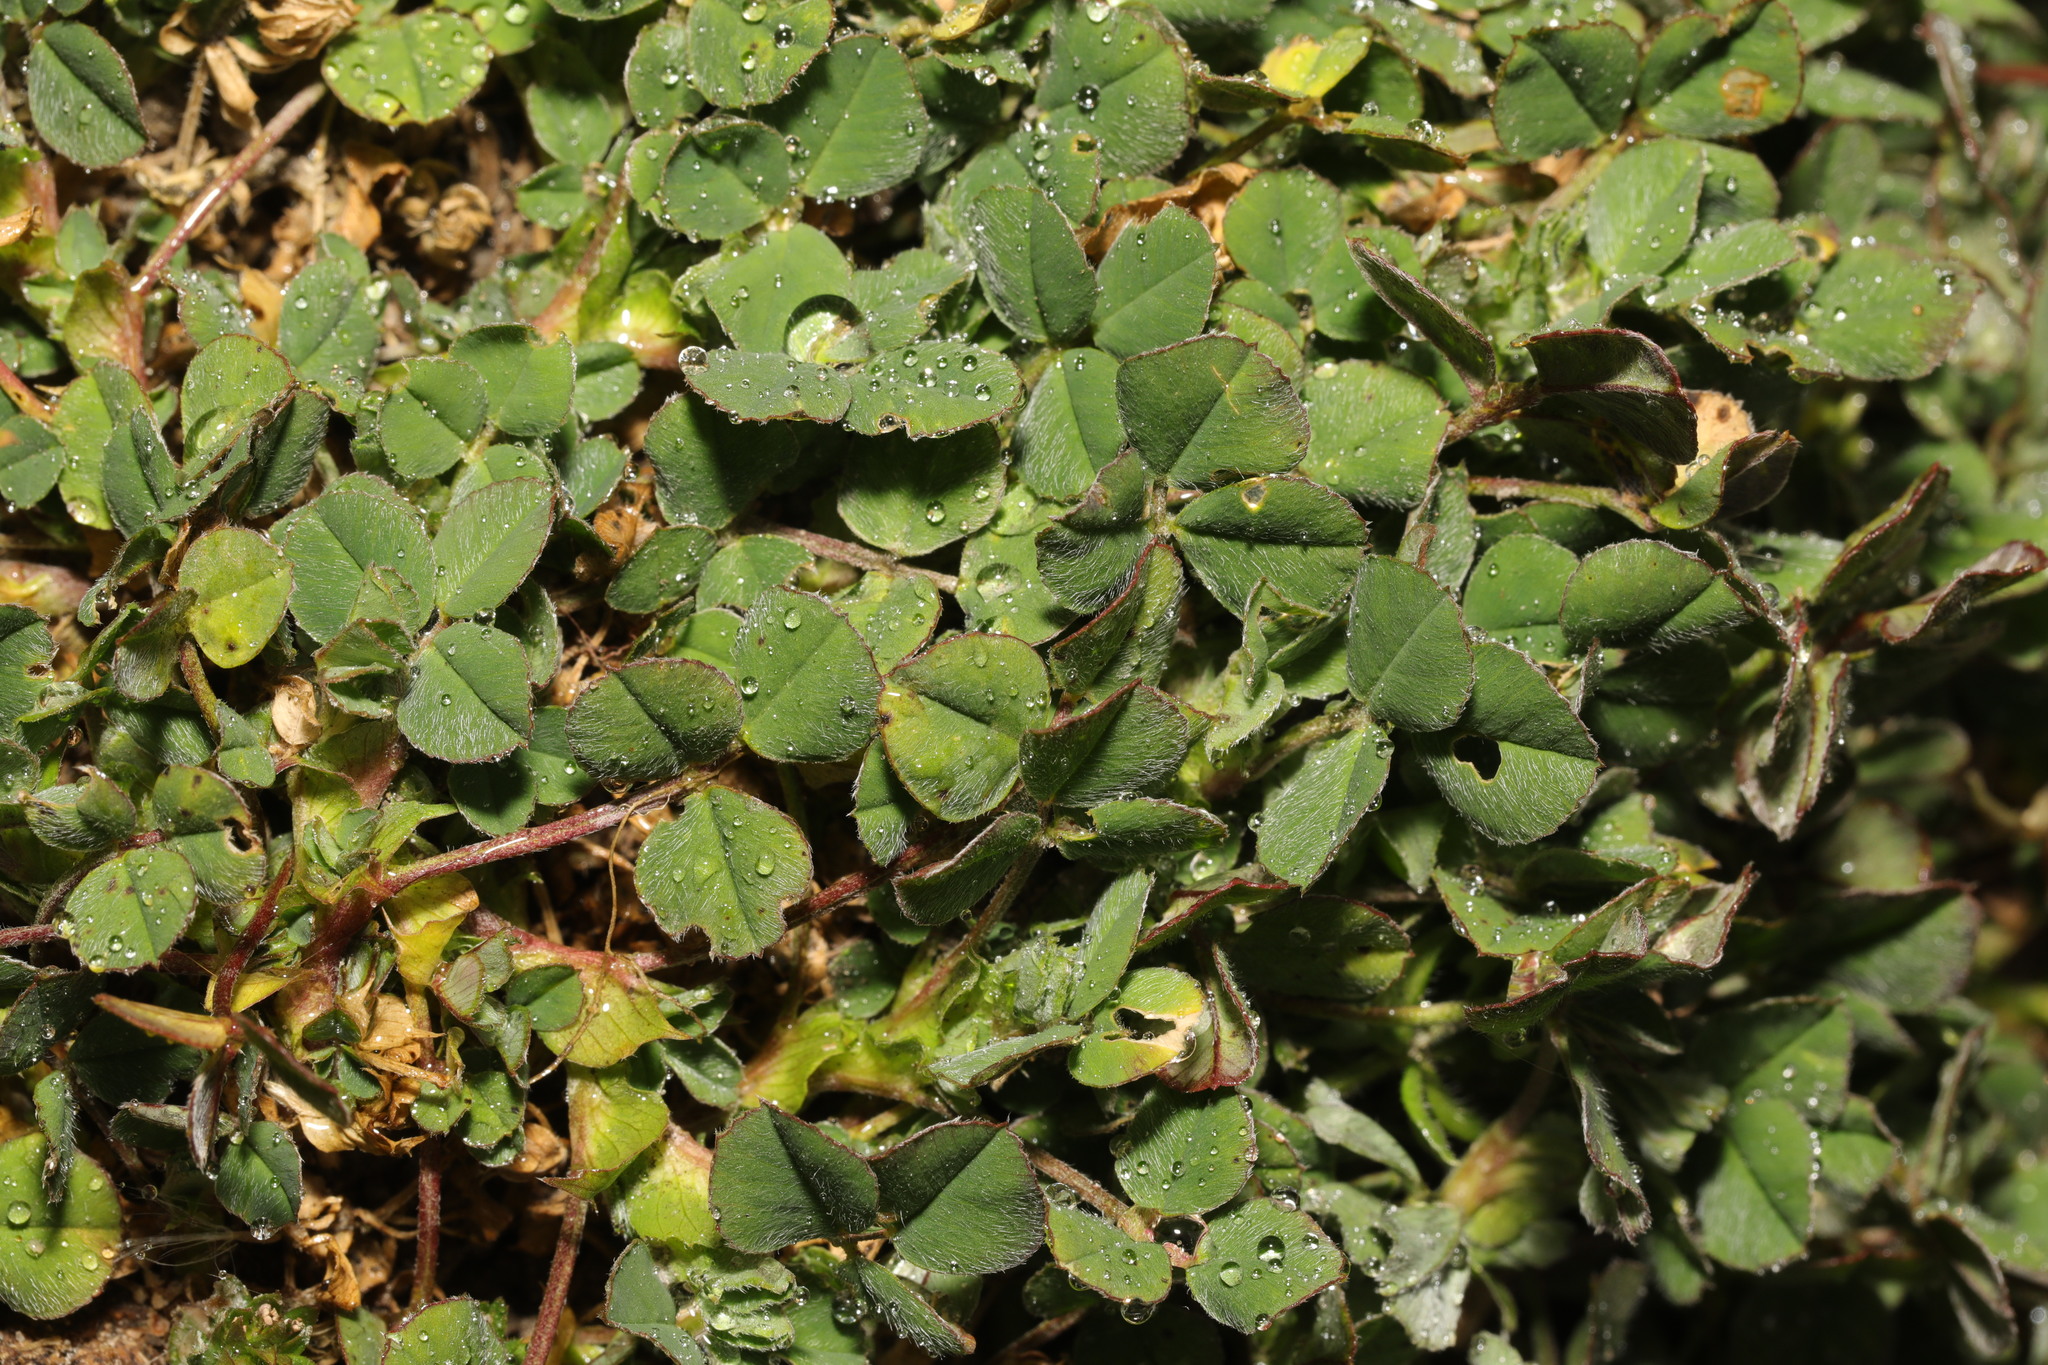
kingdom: Plantae
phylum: Tracheophyta
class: Magnoliopsida
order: Fabales
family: Fabaceae
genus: Trifolium
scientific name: Trifolium striatum
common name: Knotted clover
